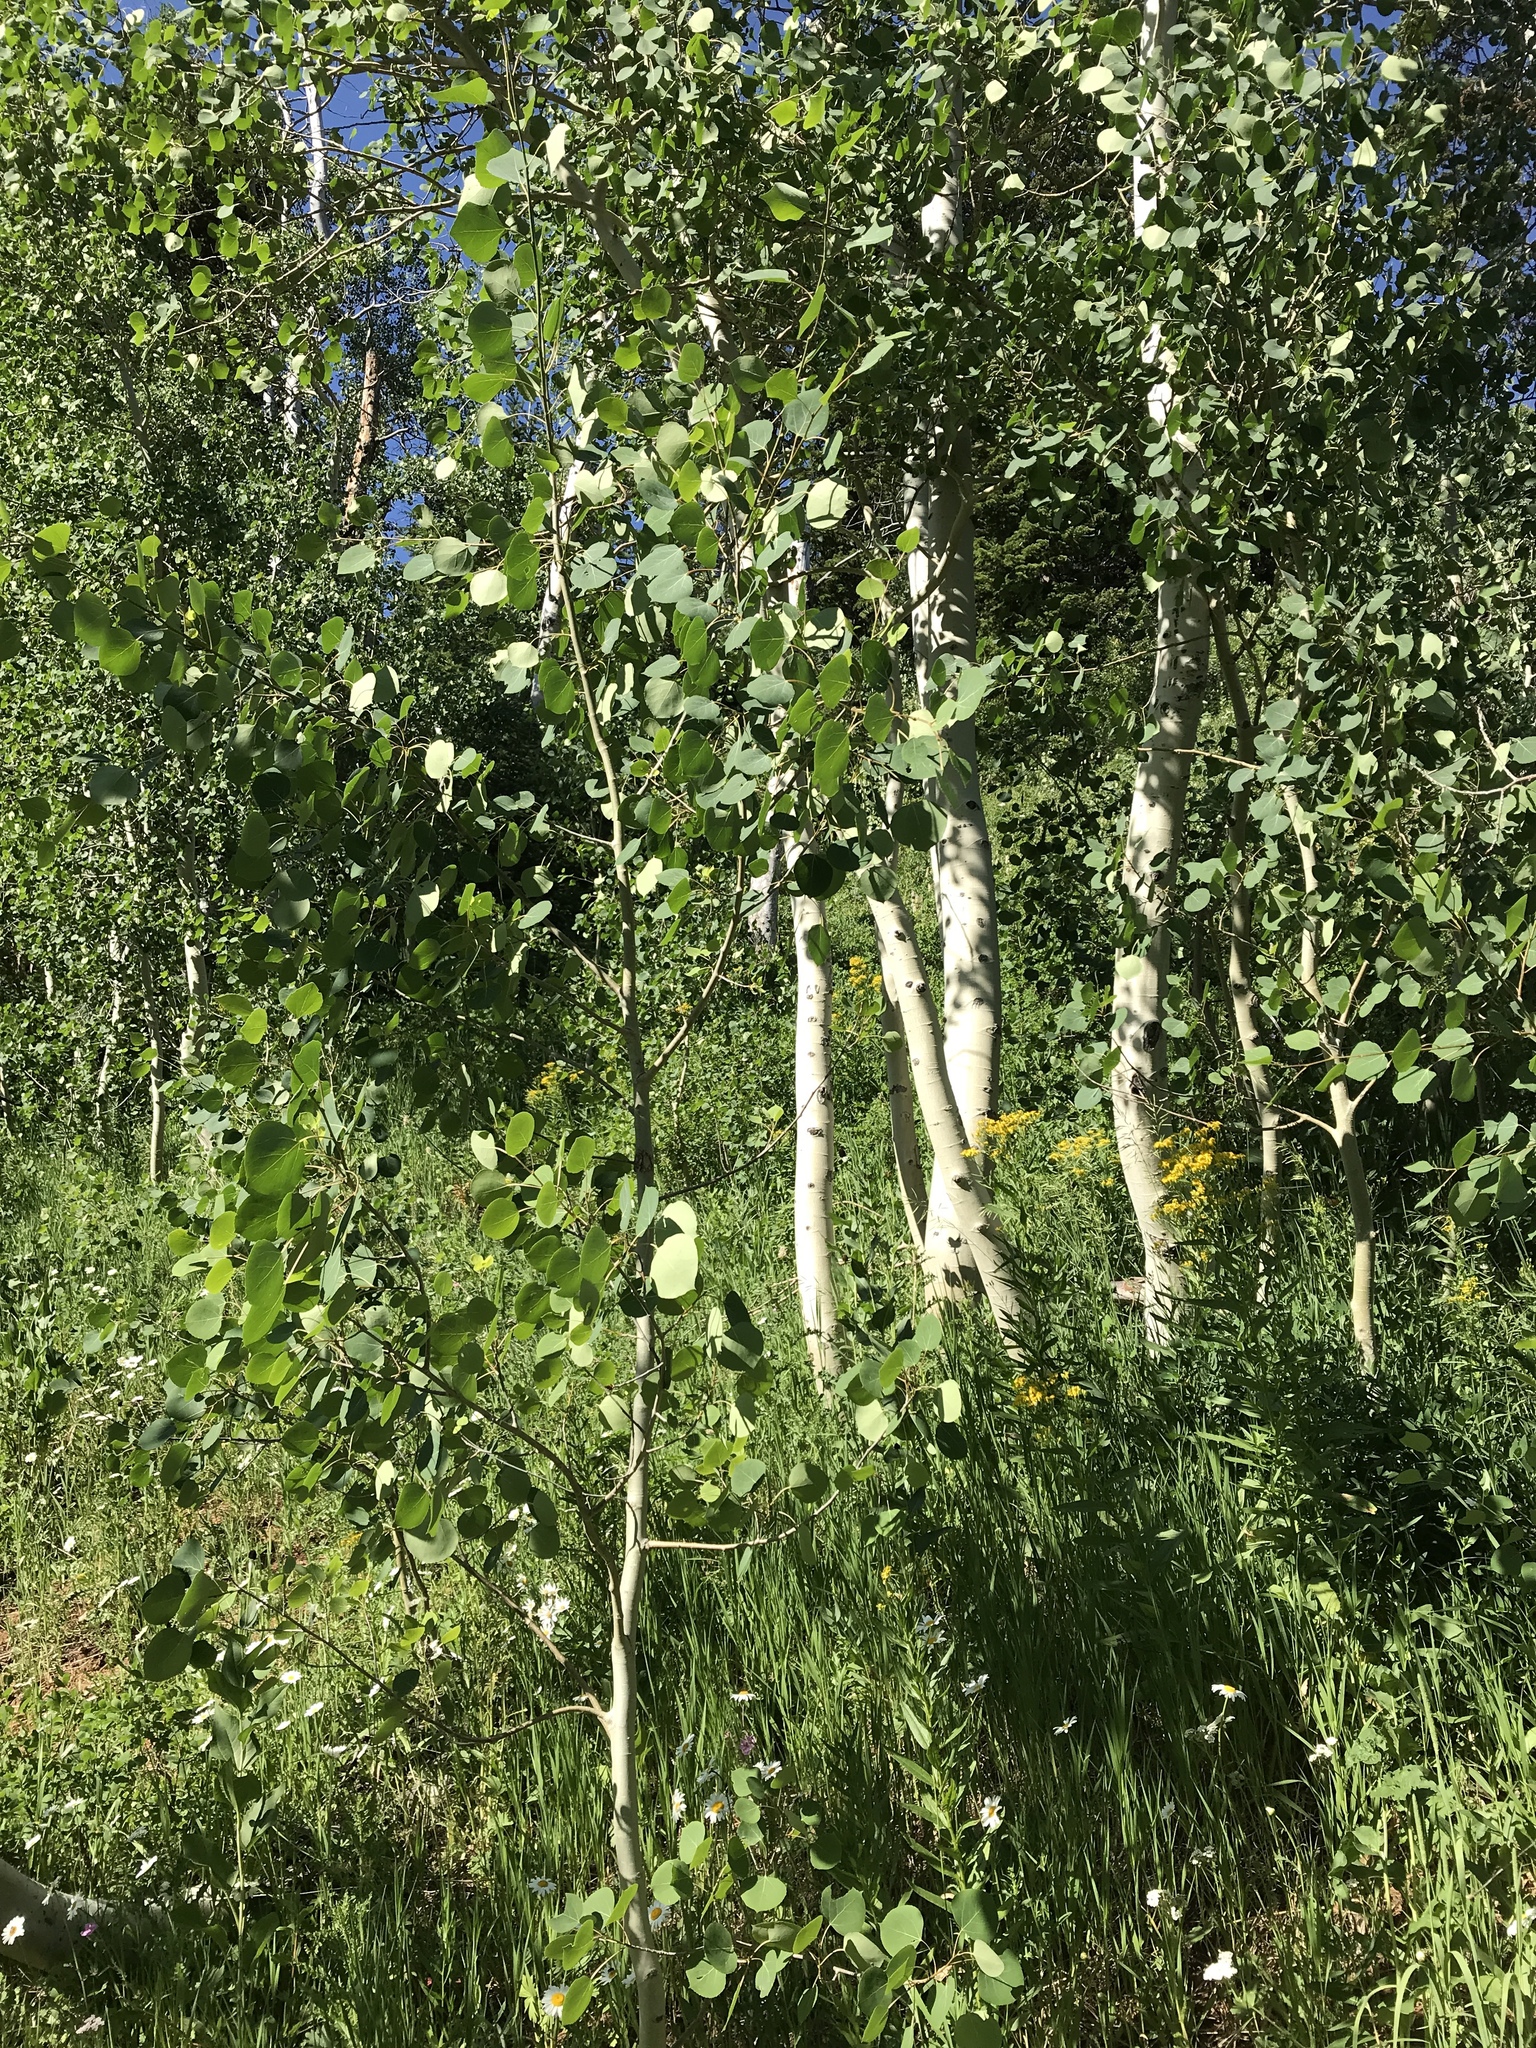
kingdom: Plantae
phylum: Tracheophyta
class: Magnoliopsida
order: Malpighiales
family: Salicaceae
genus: Populus
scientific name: Populus tremuloides
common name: Quaking aspen
